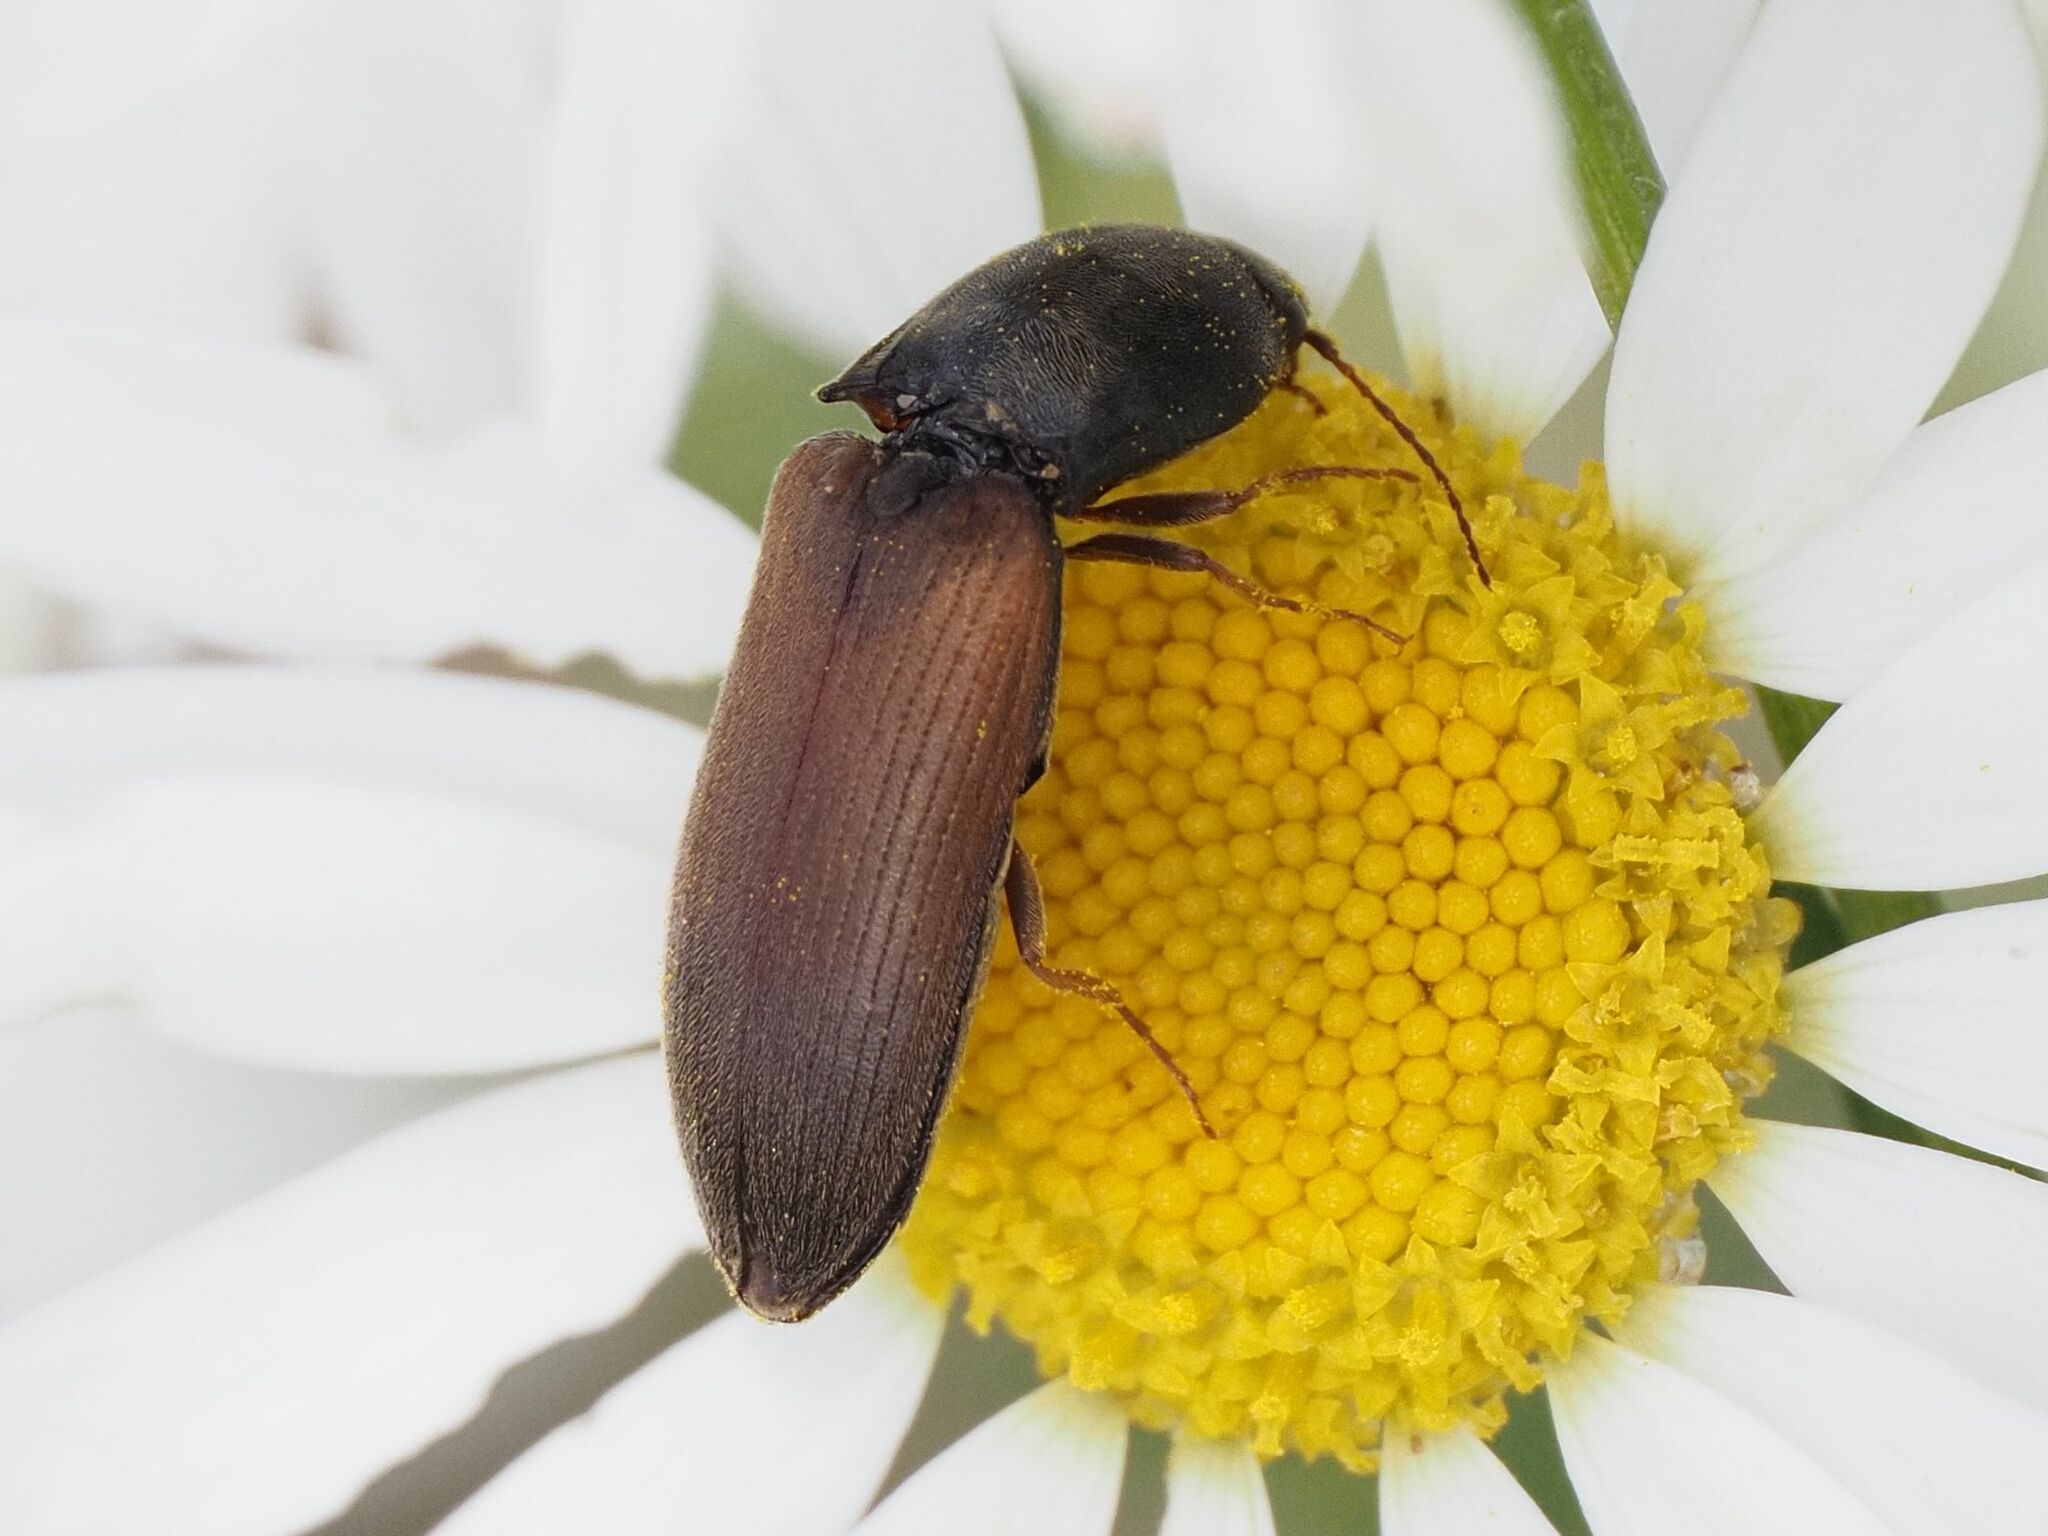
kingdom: Animalia
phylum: Arthropoda
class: Insecta
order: Coleoptera
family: Elateridae
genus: Agriotes
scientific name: Agriotes ustulatus
